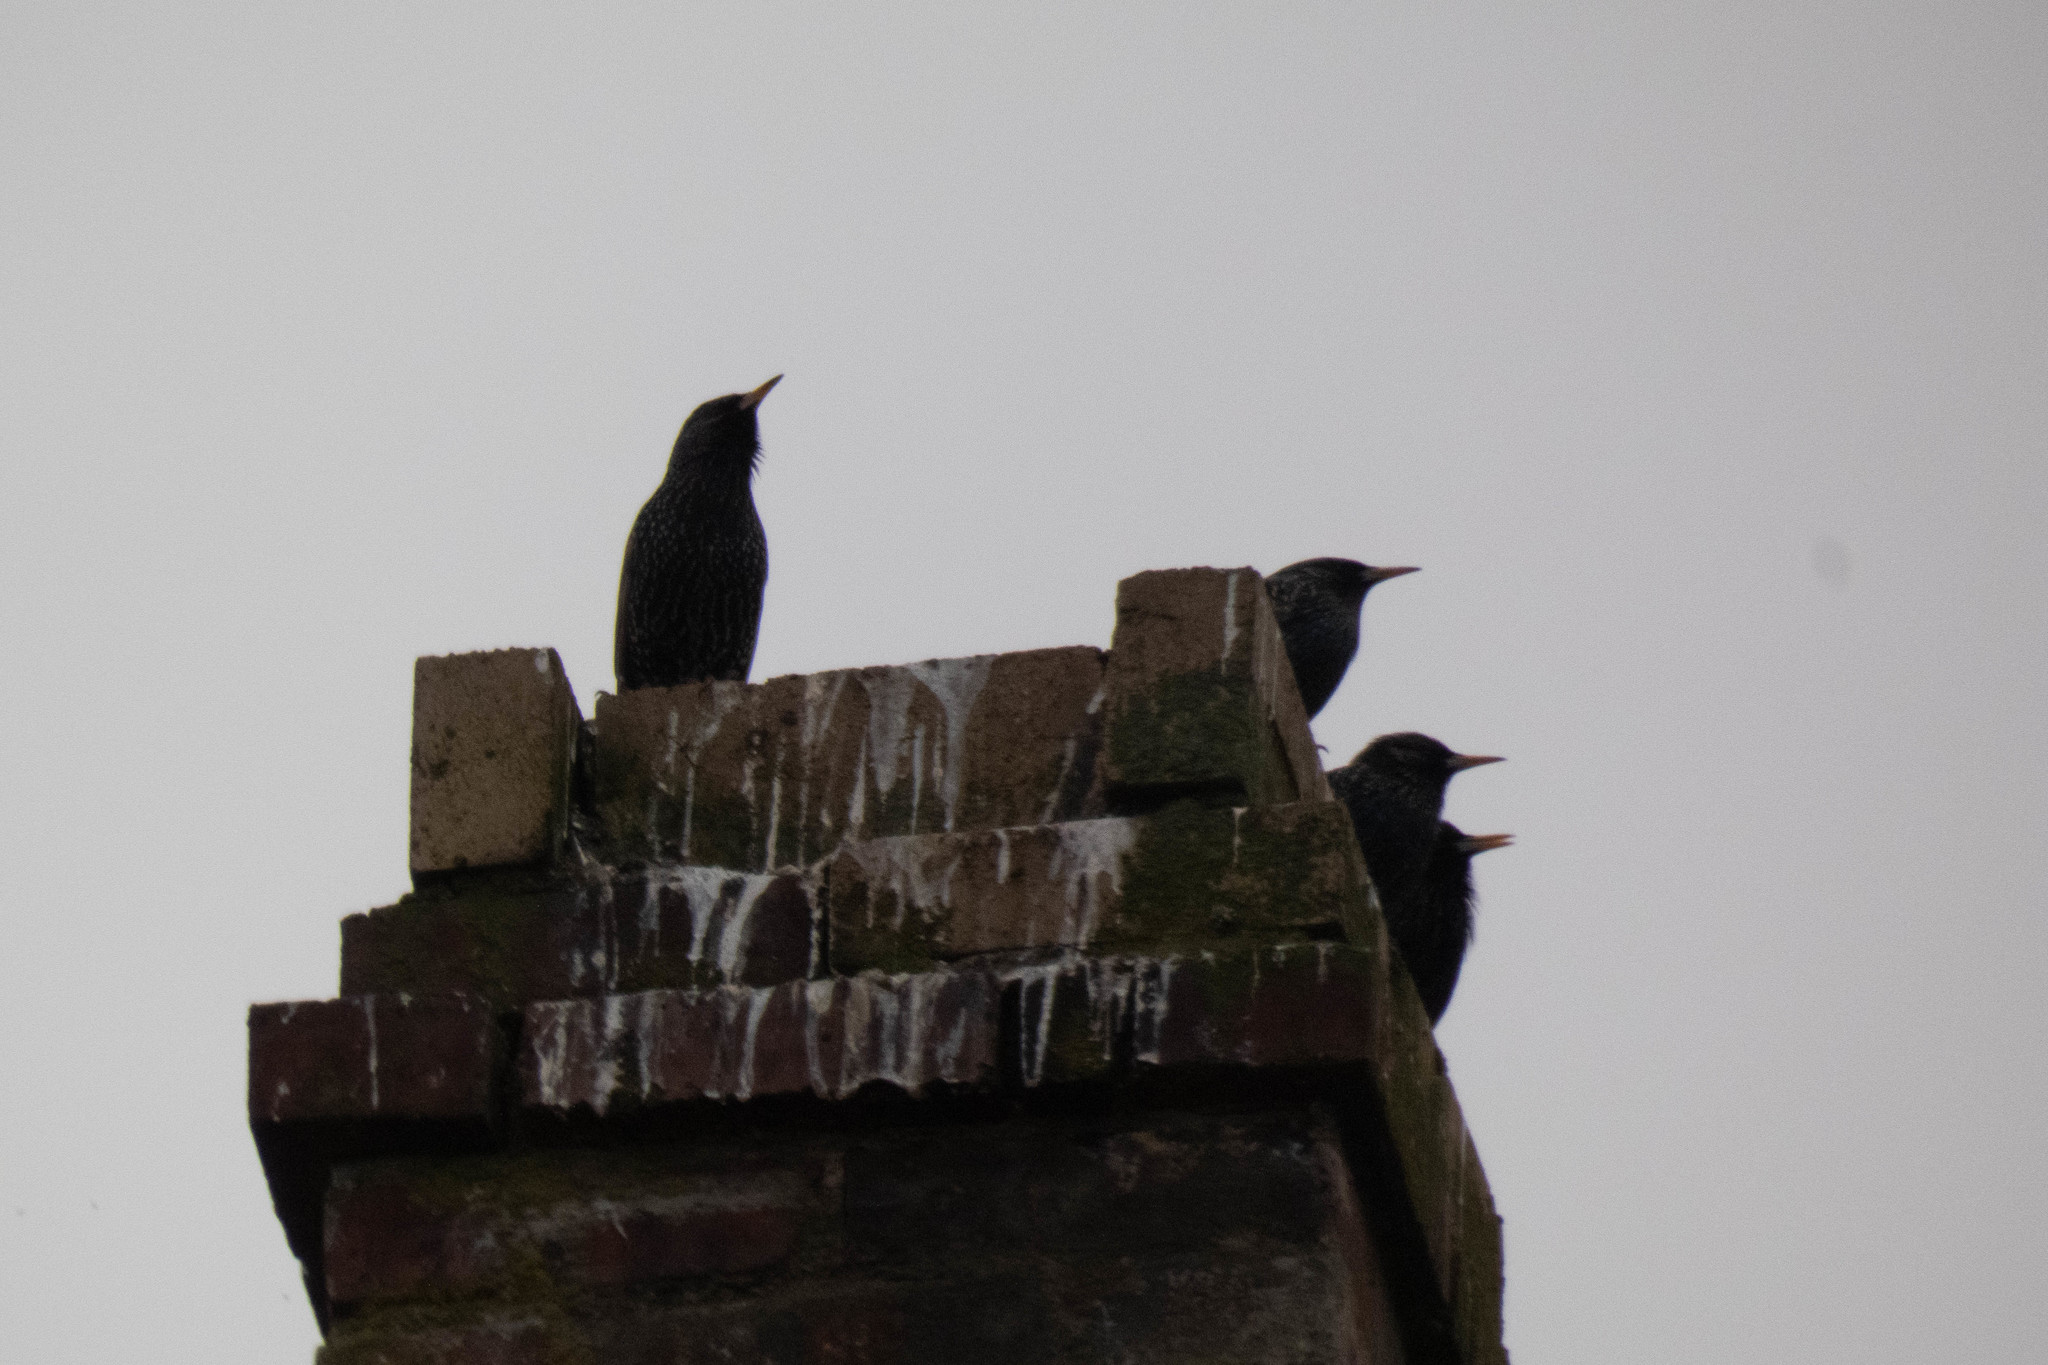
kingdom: Animalia
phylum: Chordata
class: Aves
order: Passeriformes
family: Sturnidae
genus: Sturnus
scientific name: Sturnus vulgaris
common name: Common starling
